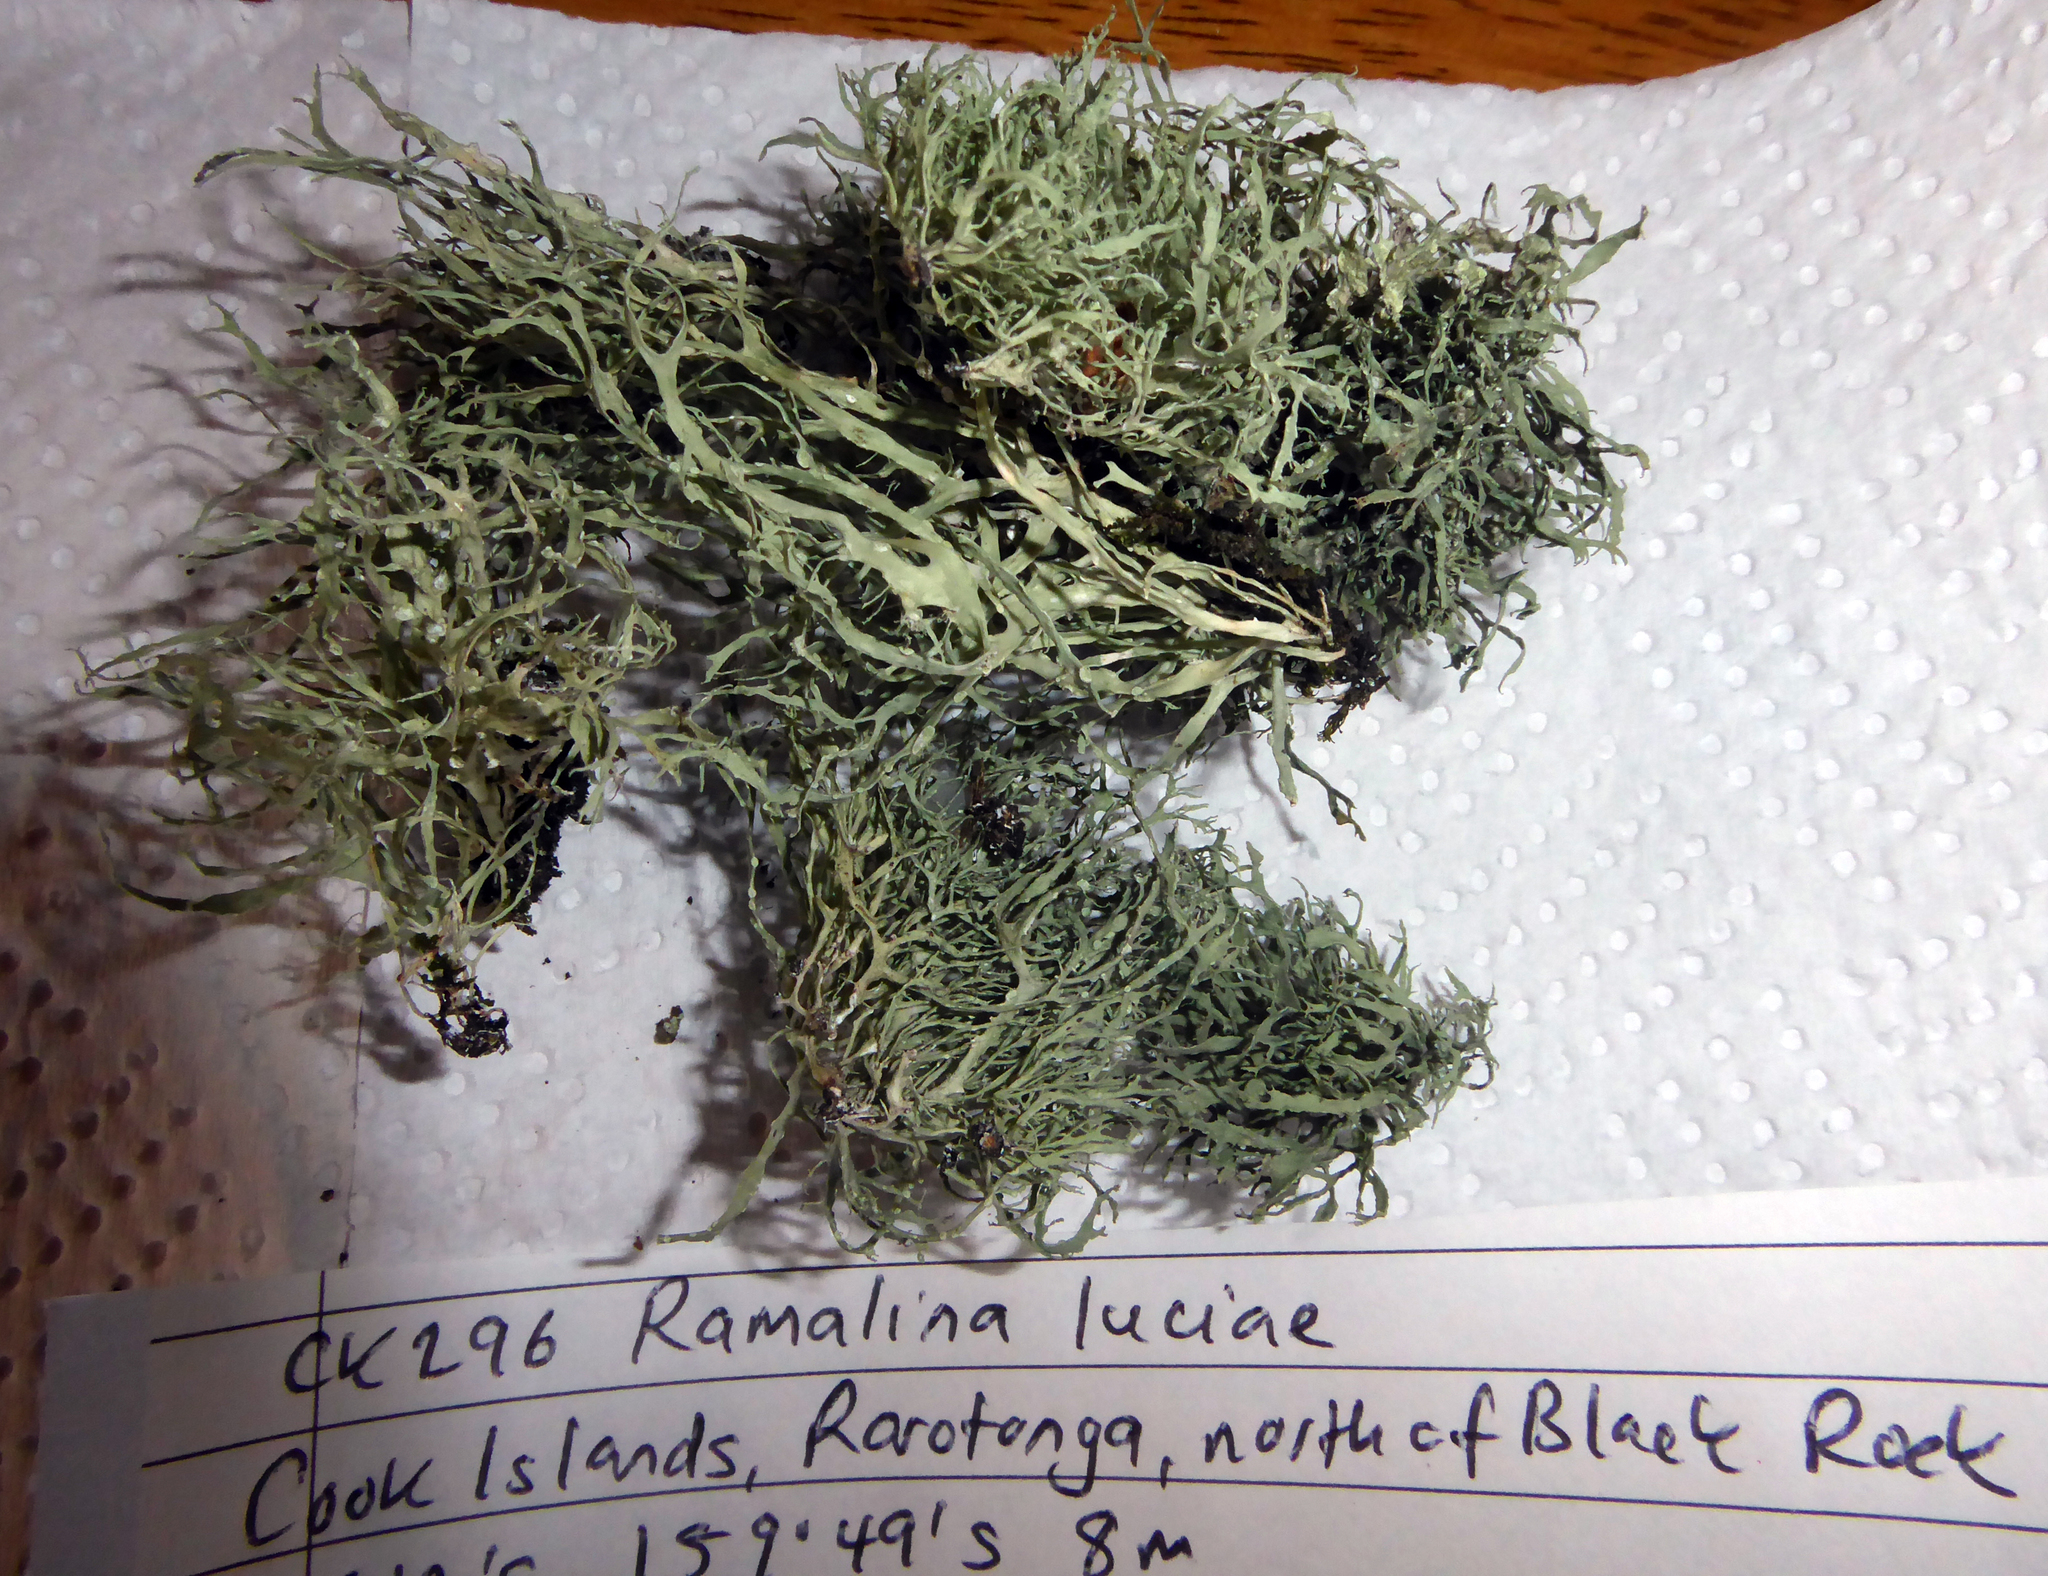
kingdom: Fungi
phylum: Ascomycota
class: Lecanoromycetes
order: Lecanorales
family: Ramalinaceae
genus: Ramalina
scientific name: Ramalina luciae
